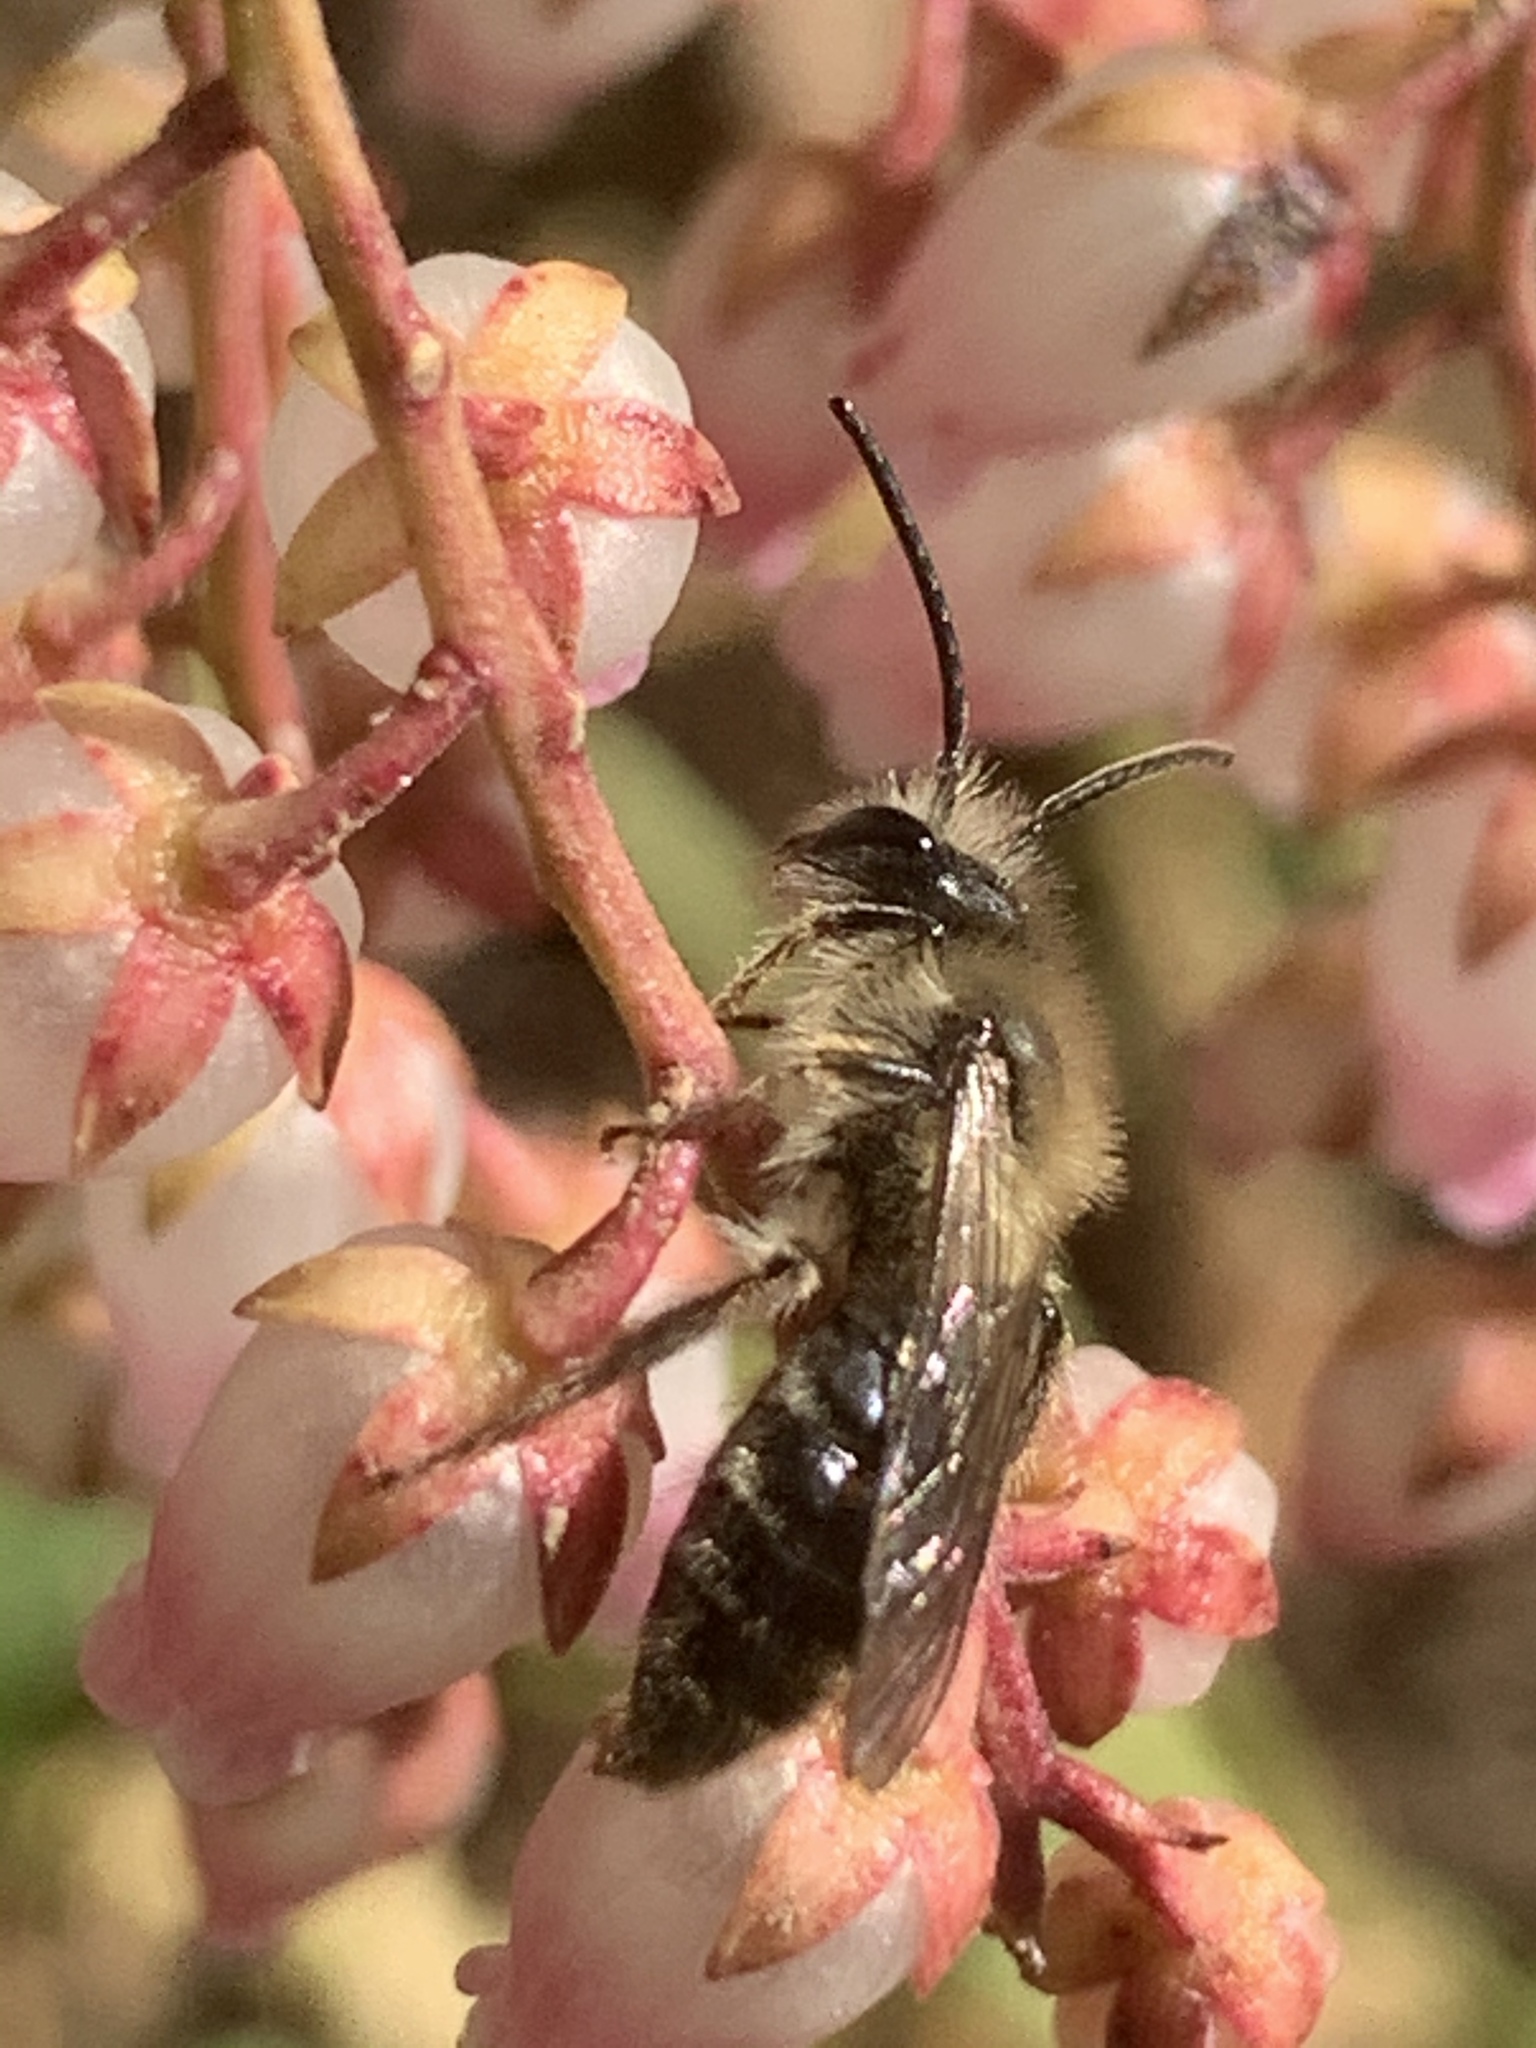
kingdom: Animalia
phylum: Arthropoda
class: Insecta
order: Hymenoptera
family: Andrenidae
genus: Andrena
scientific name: Andrena
